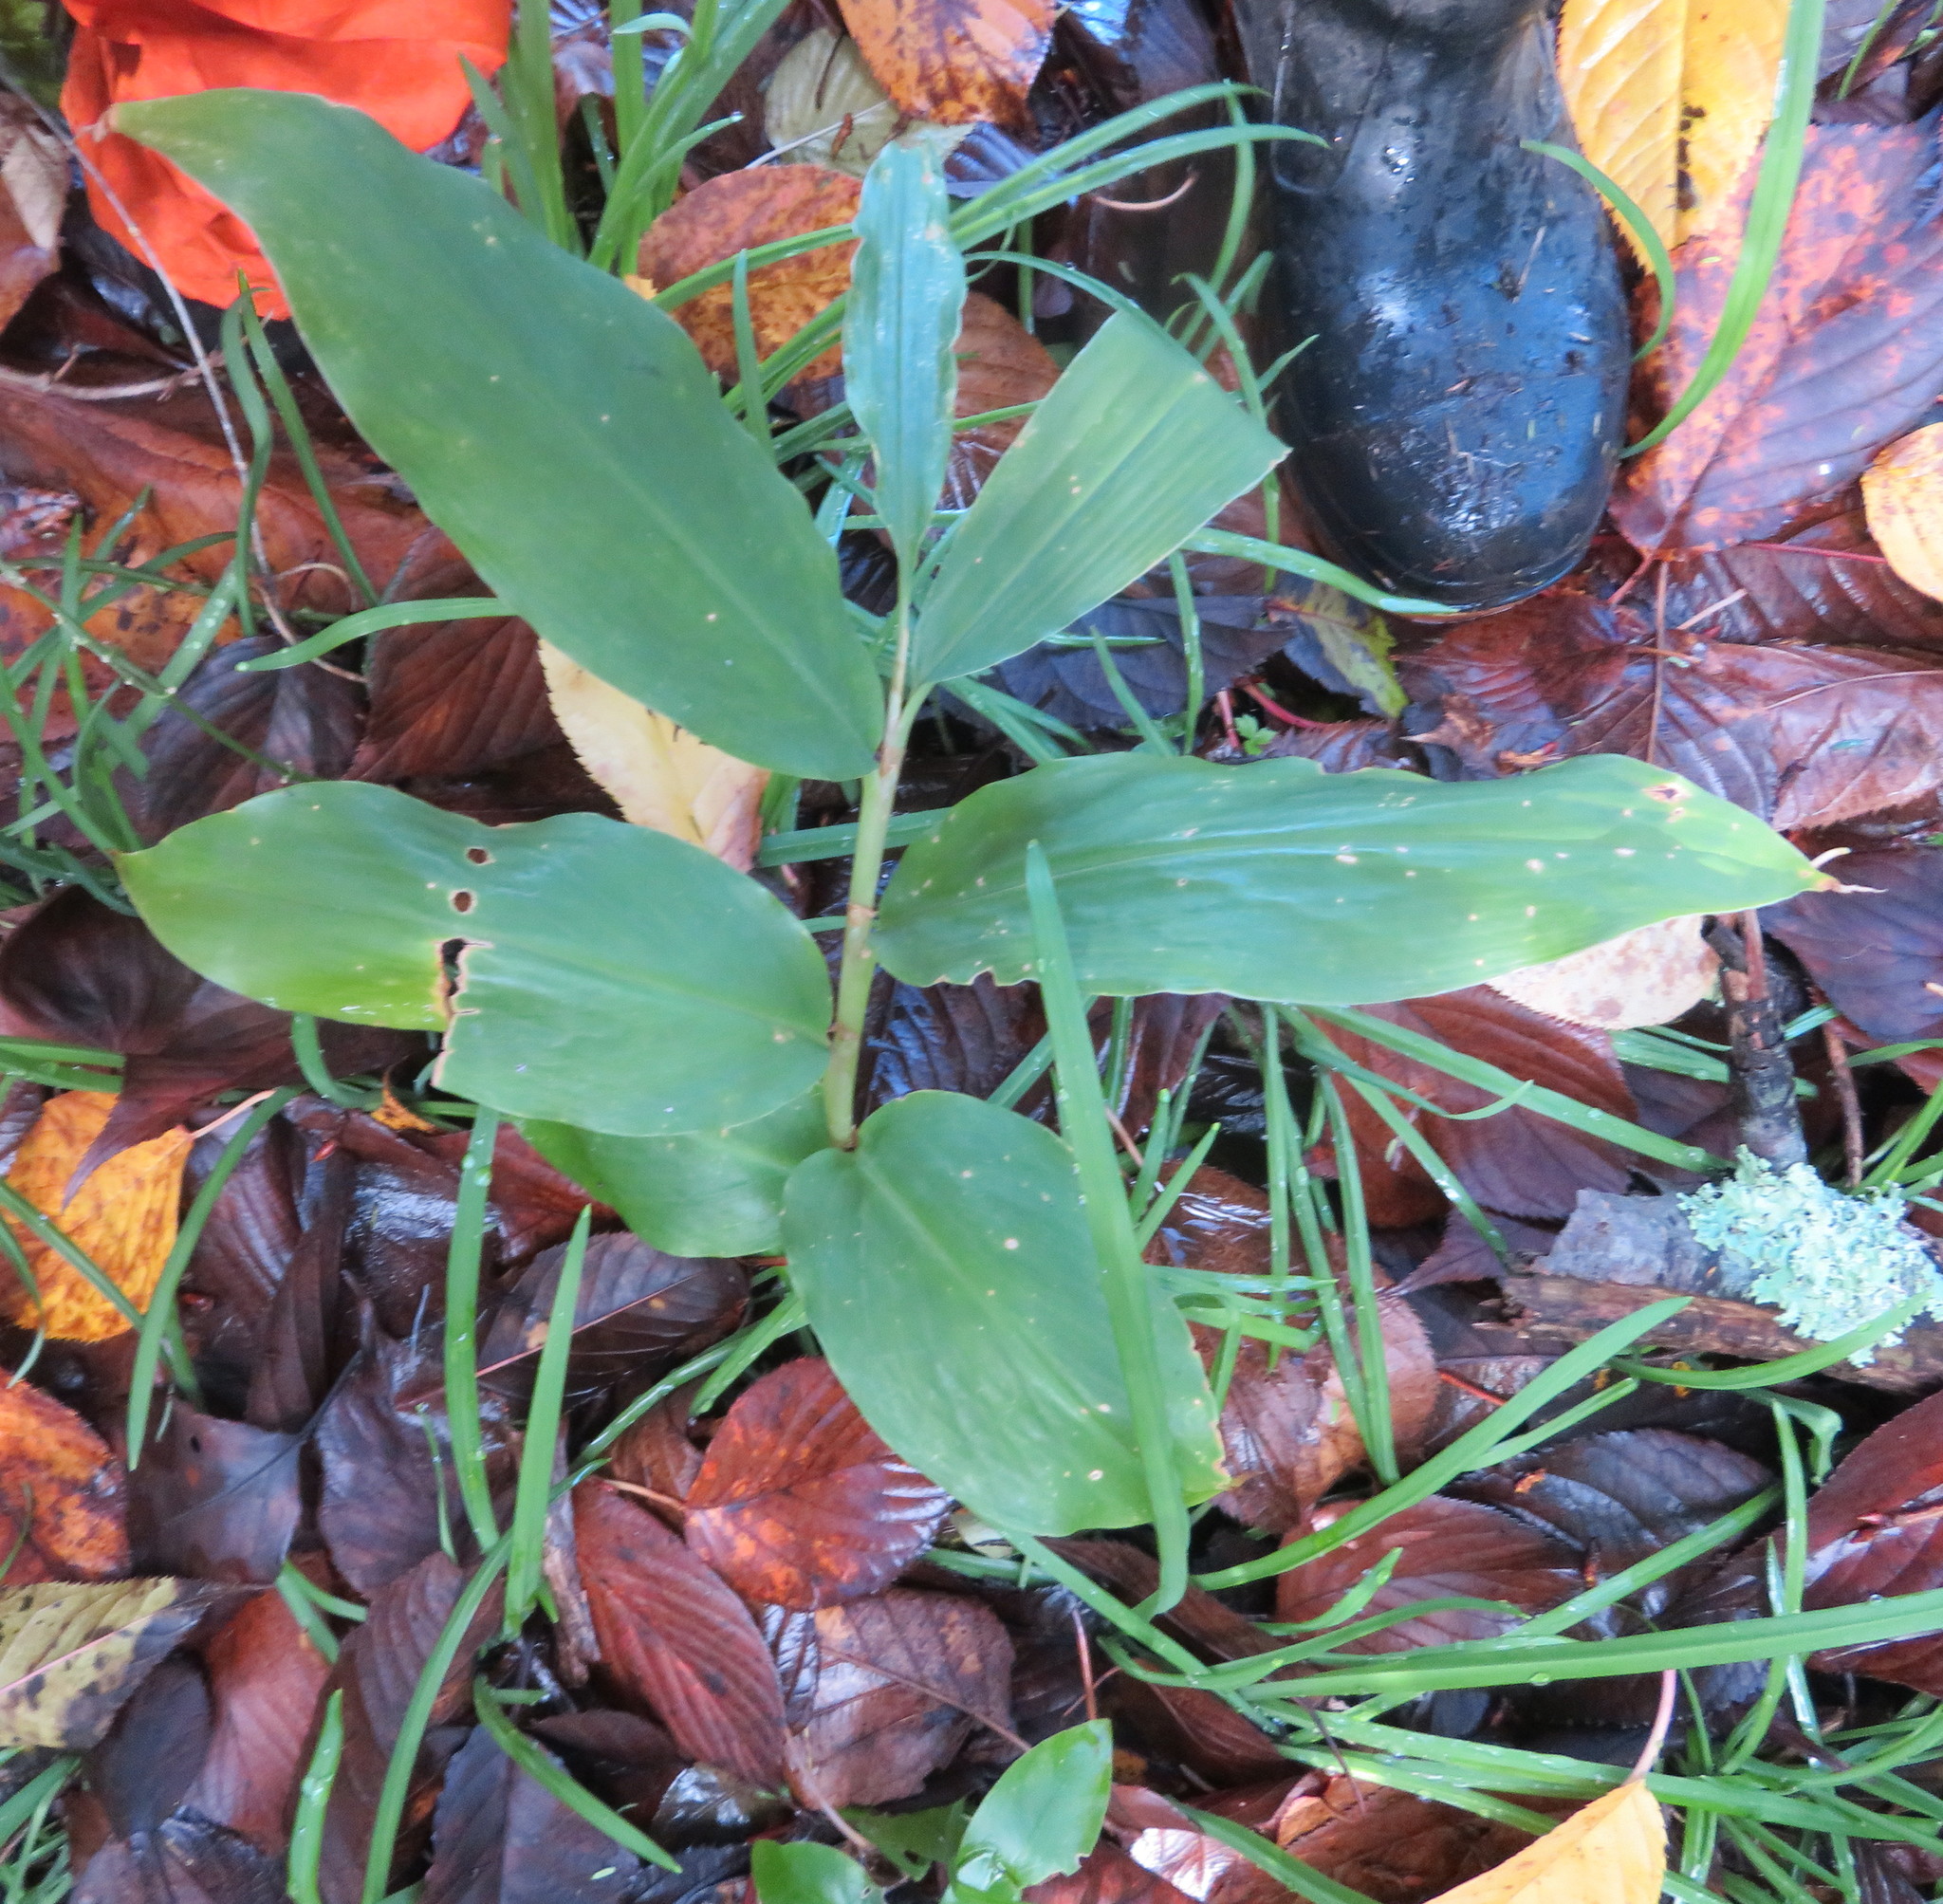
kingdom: Plantae
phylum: Tracheophyta
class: Liliopsida
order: Zingiberales
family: Zingiberaceae
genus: Hedychium
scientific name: Hedychium gardnerianum
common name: Himalayan ginger
